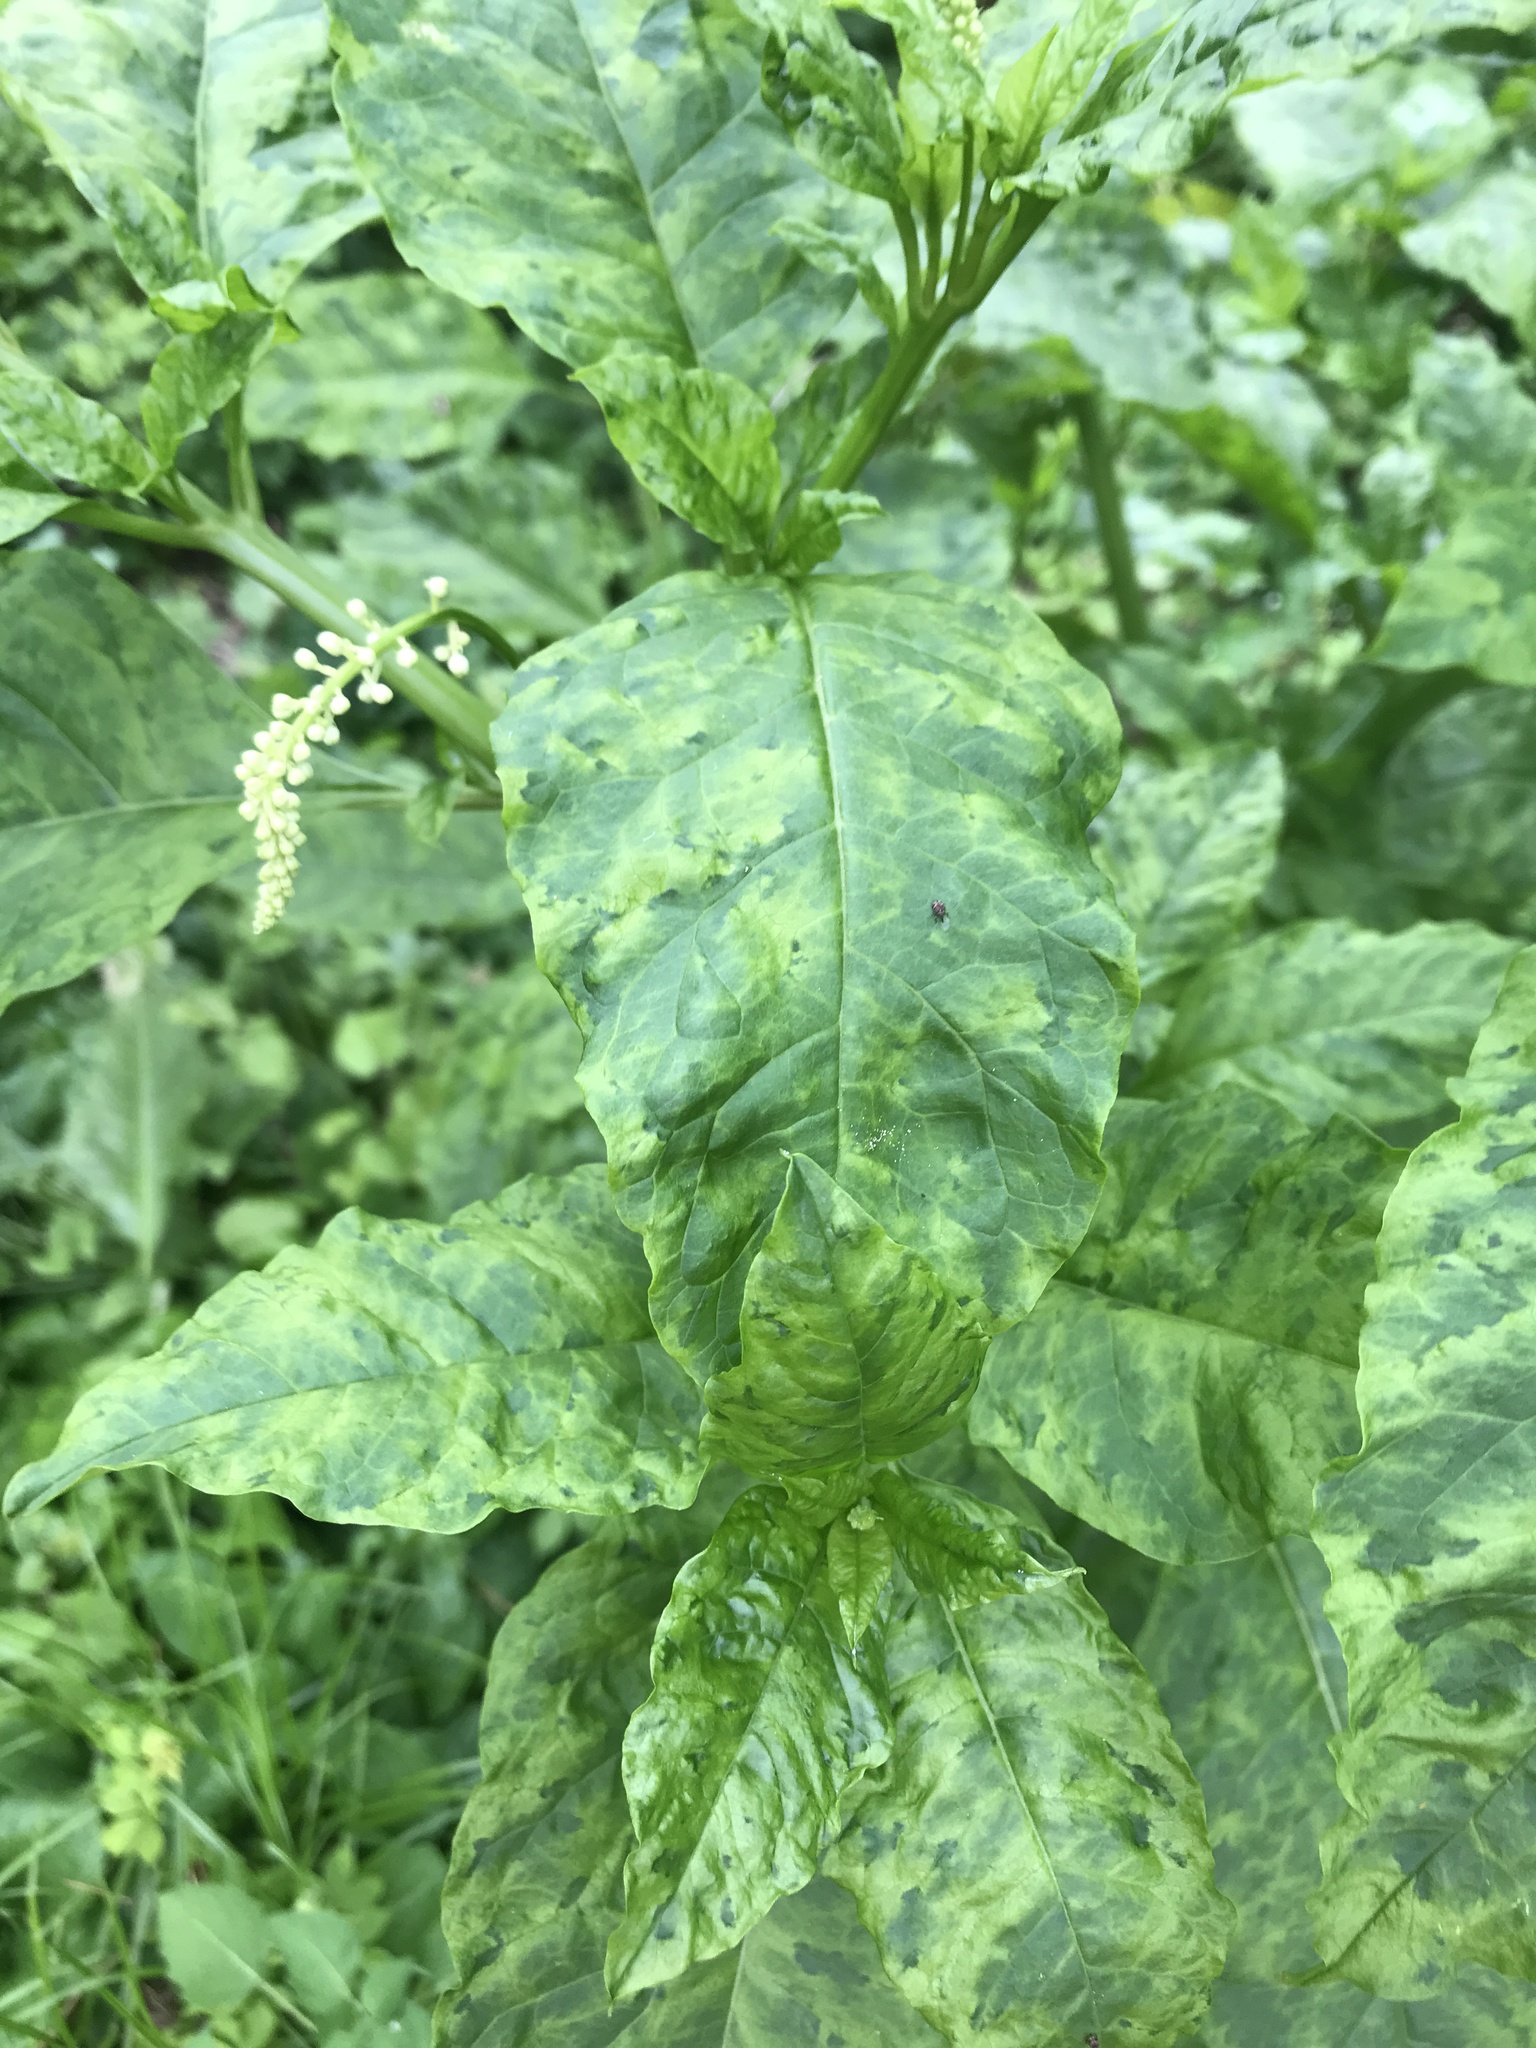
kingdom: Viruses
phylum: Pisuviricota
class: Stelpaviricetes
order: Patatavirales
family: Potyviridae
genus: Potyvirus
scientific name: Potyvirus Pokeweed mosaic virus
